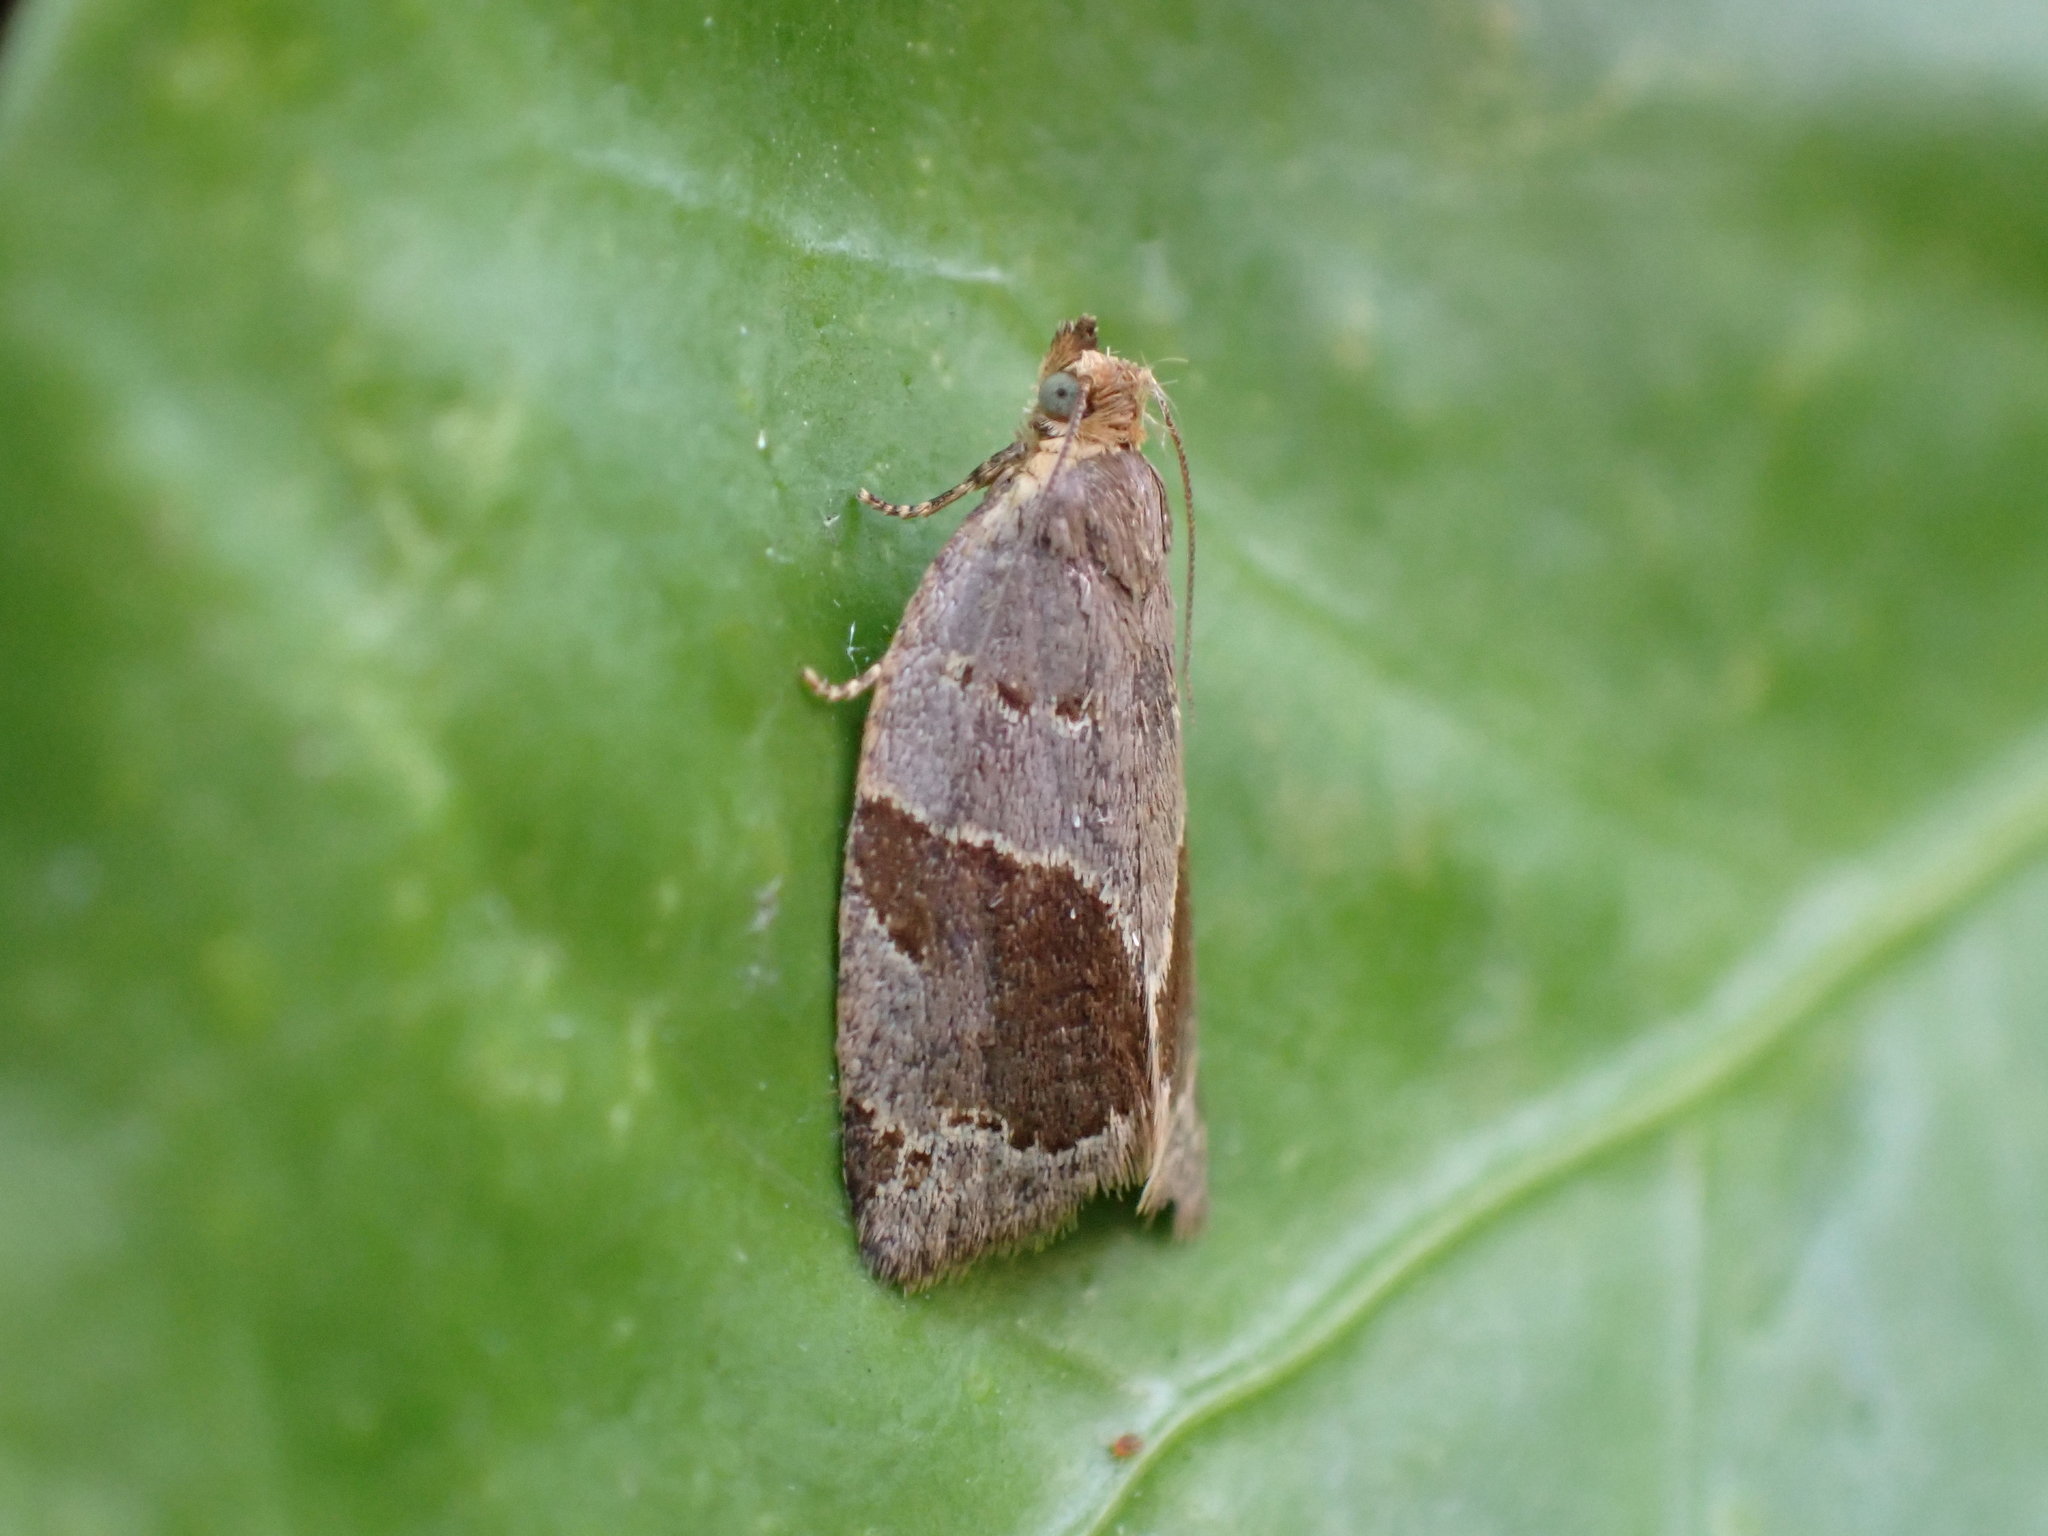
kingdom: Animalia
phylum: Arthropoda
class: Insecta
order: Lepidoptera
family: Tortricidae
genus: Clepsis
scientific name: Clepsis dumicolana
